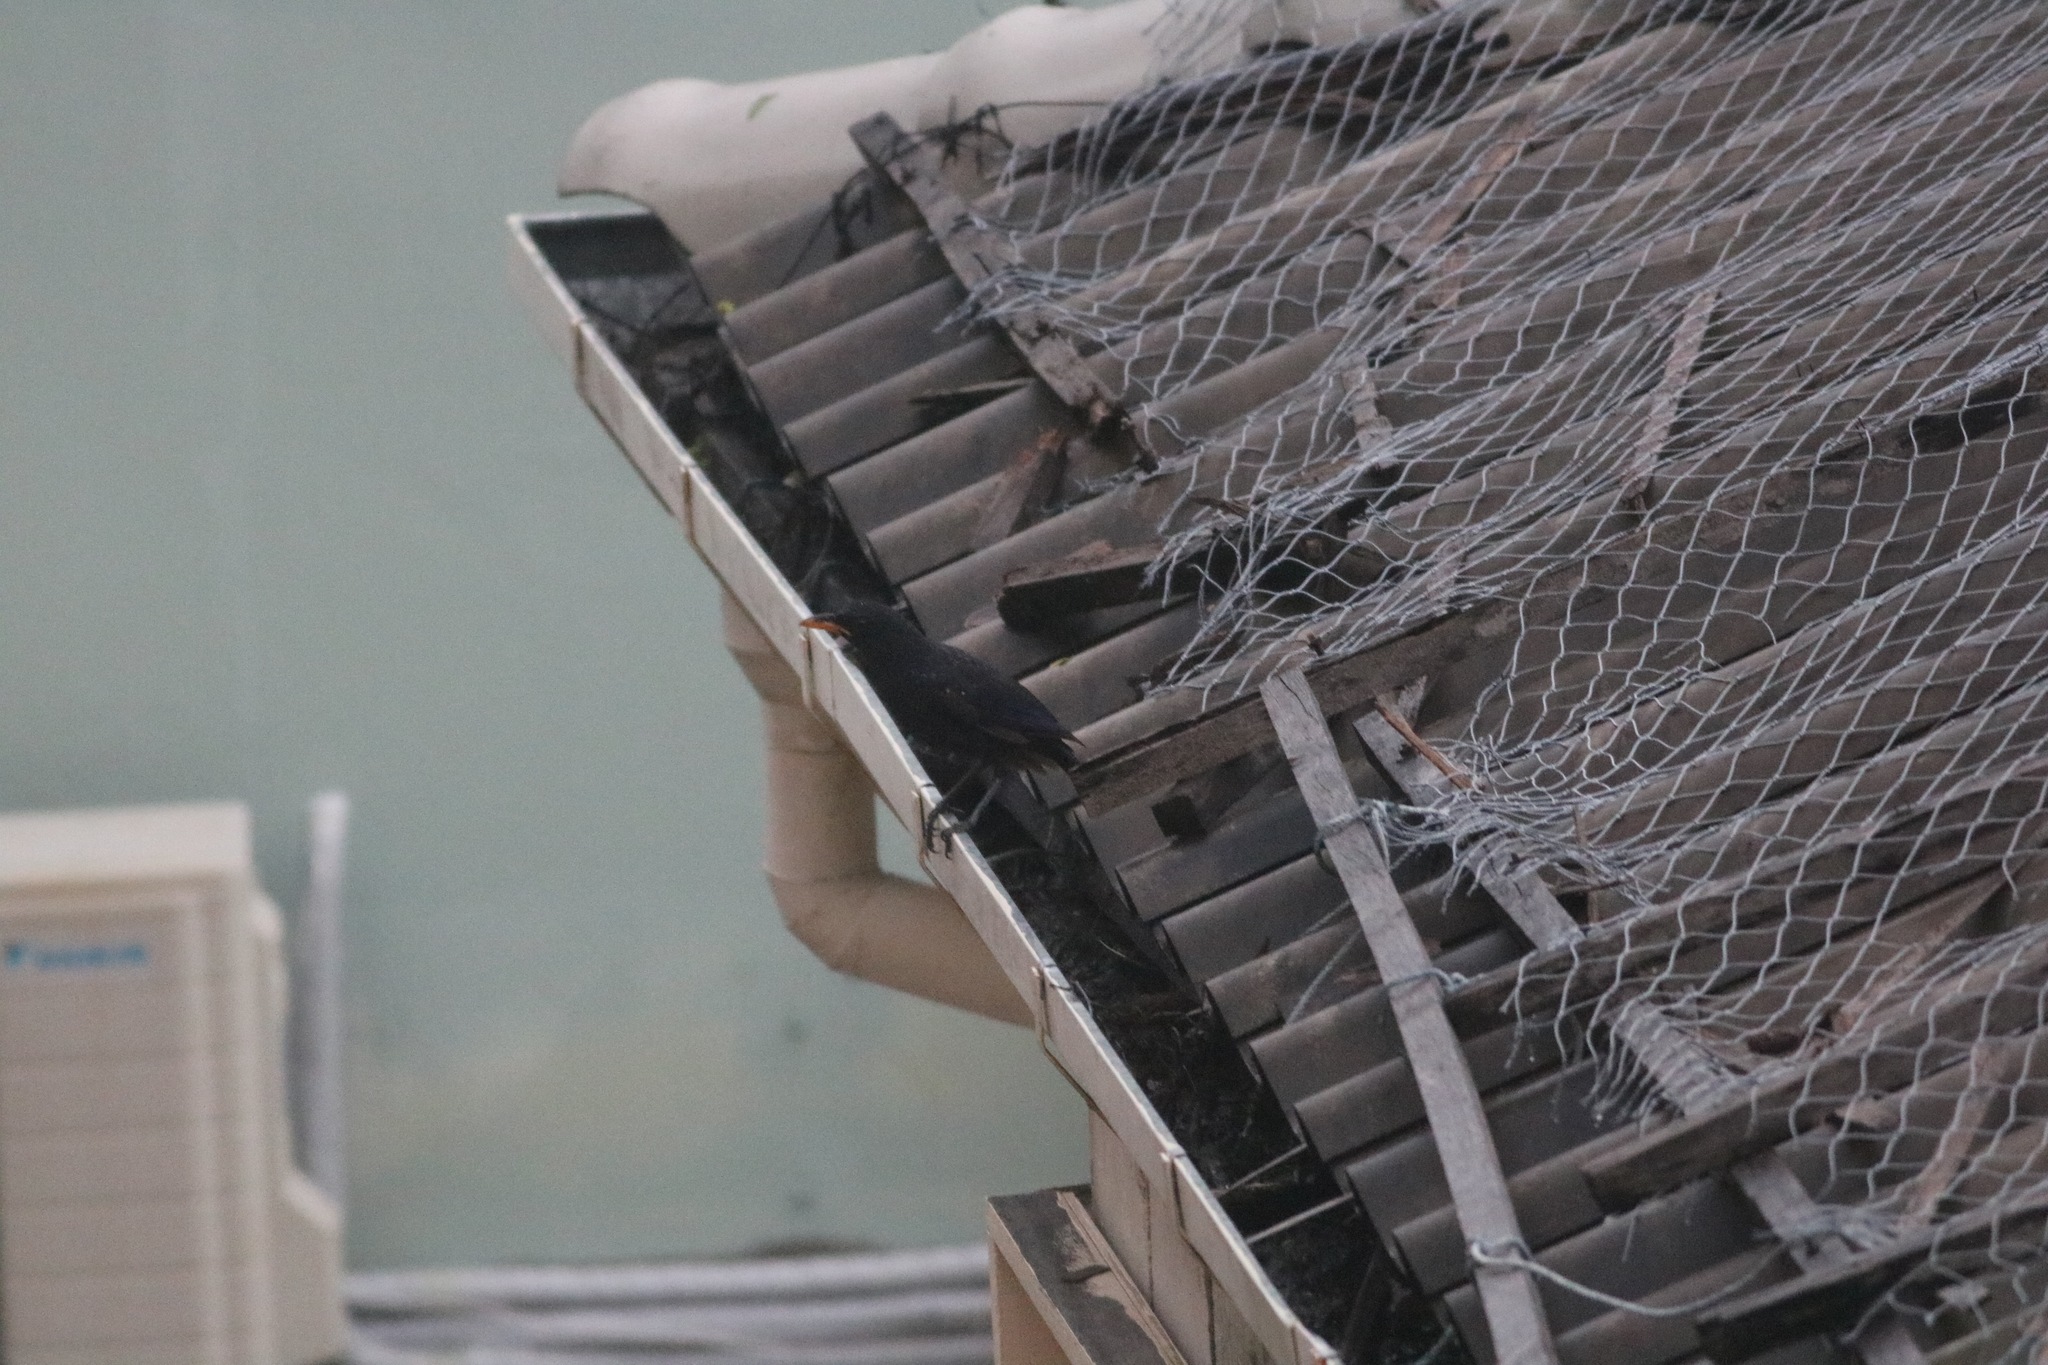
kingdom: Animalia
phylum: Chordata
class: Aves
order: Passeriformes
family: Muscicapidae
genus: Myophonus
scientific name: Myophonus caeruleus
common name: Blue whistling-thrush
